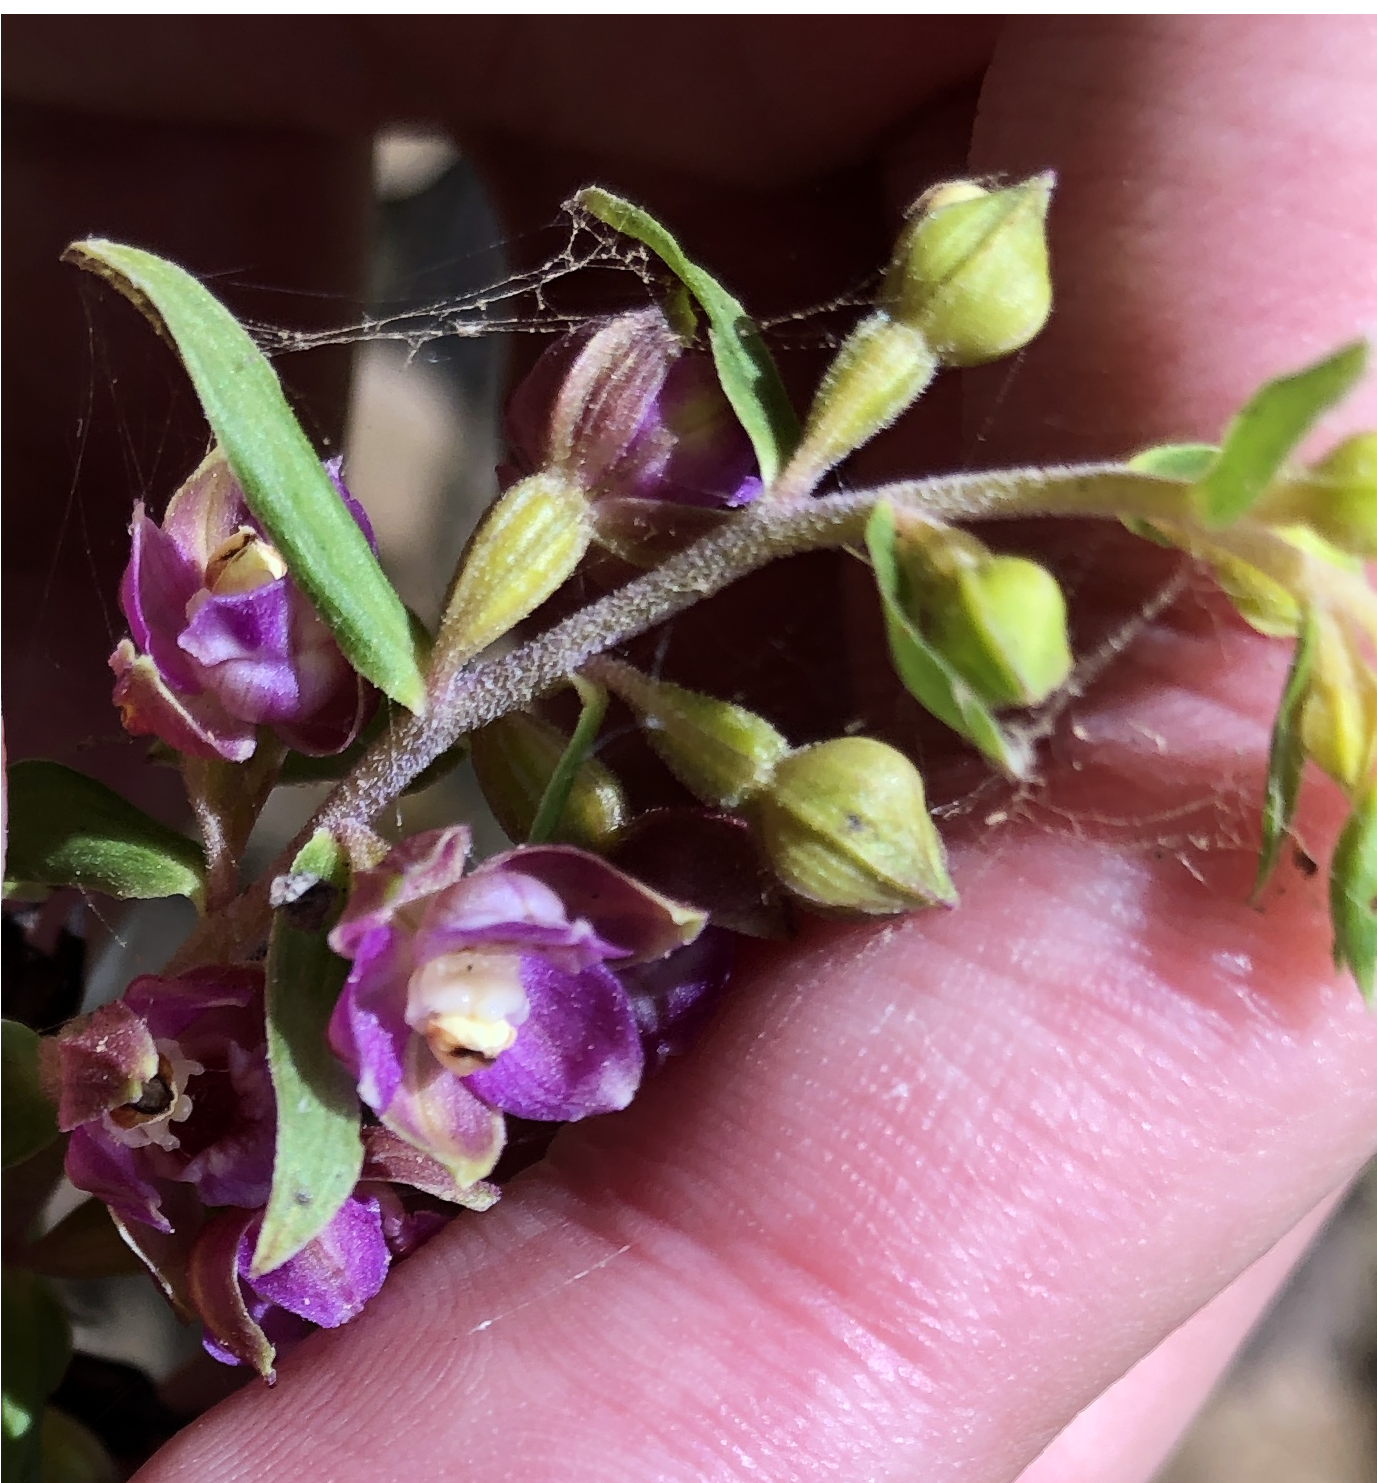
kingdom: Plantae
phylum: Tracheophyta
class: Liliopsida
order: Asparagales
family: Orchidaceae
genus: Epipactis
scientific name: Epipactis helleborine
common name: Broad-leaved helleborine
